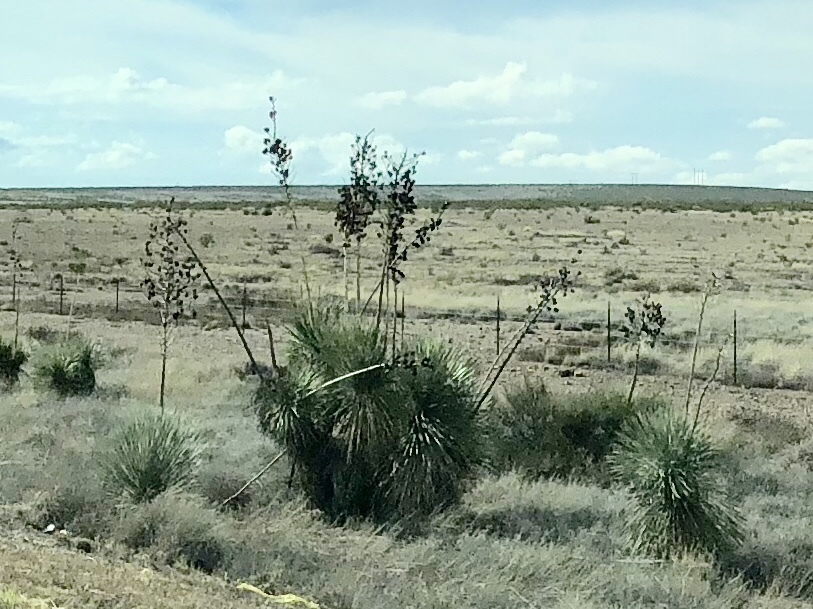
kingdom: Plantae
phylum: Tracheophyta
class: Liliopsida
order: Asparagales
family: Asparagaceae
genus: Yucca
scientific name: Yucca elata
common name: Palmella
